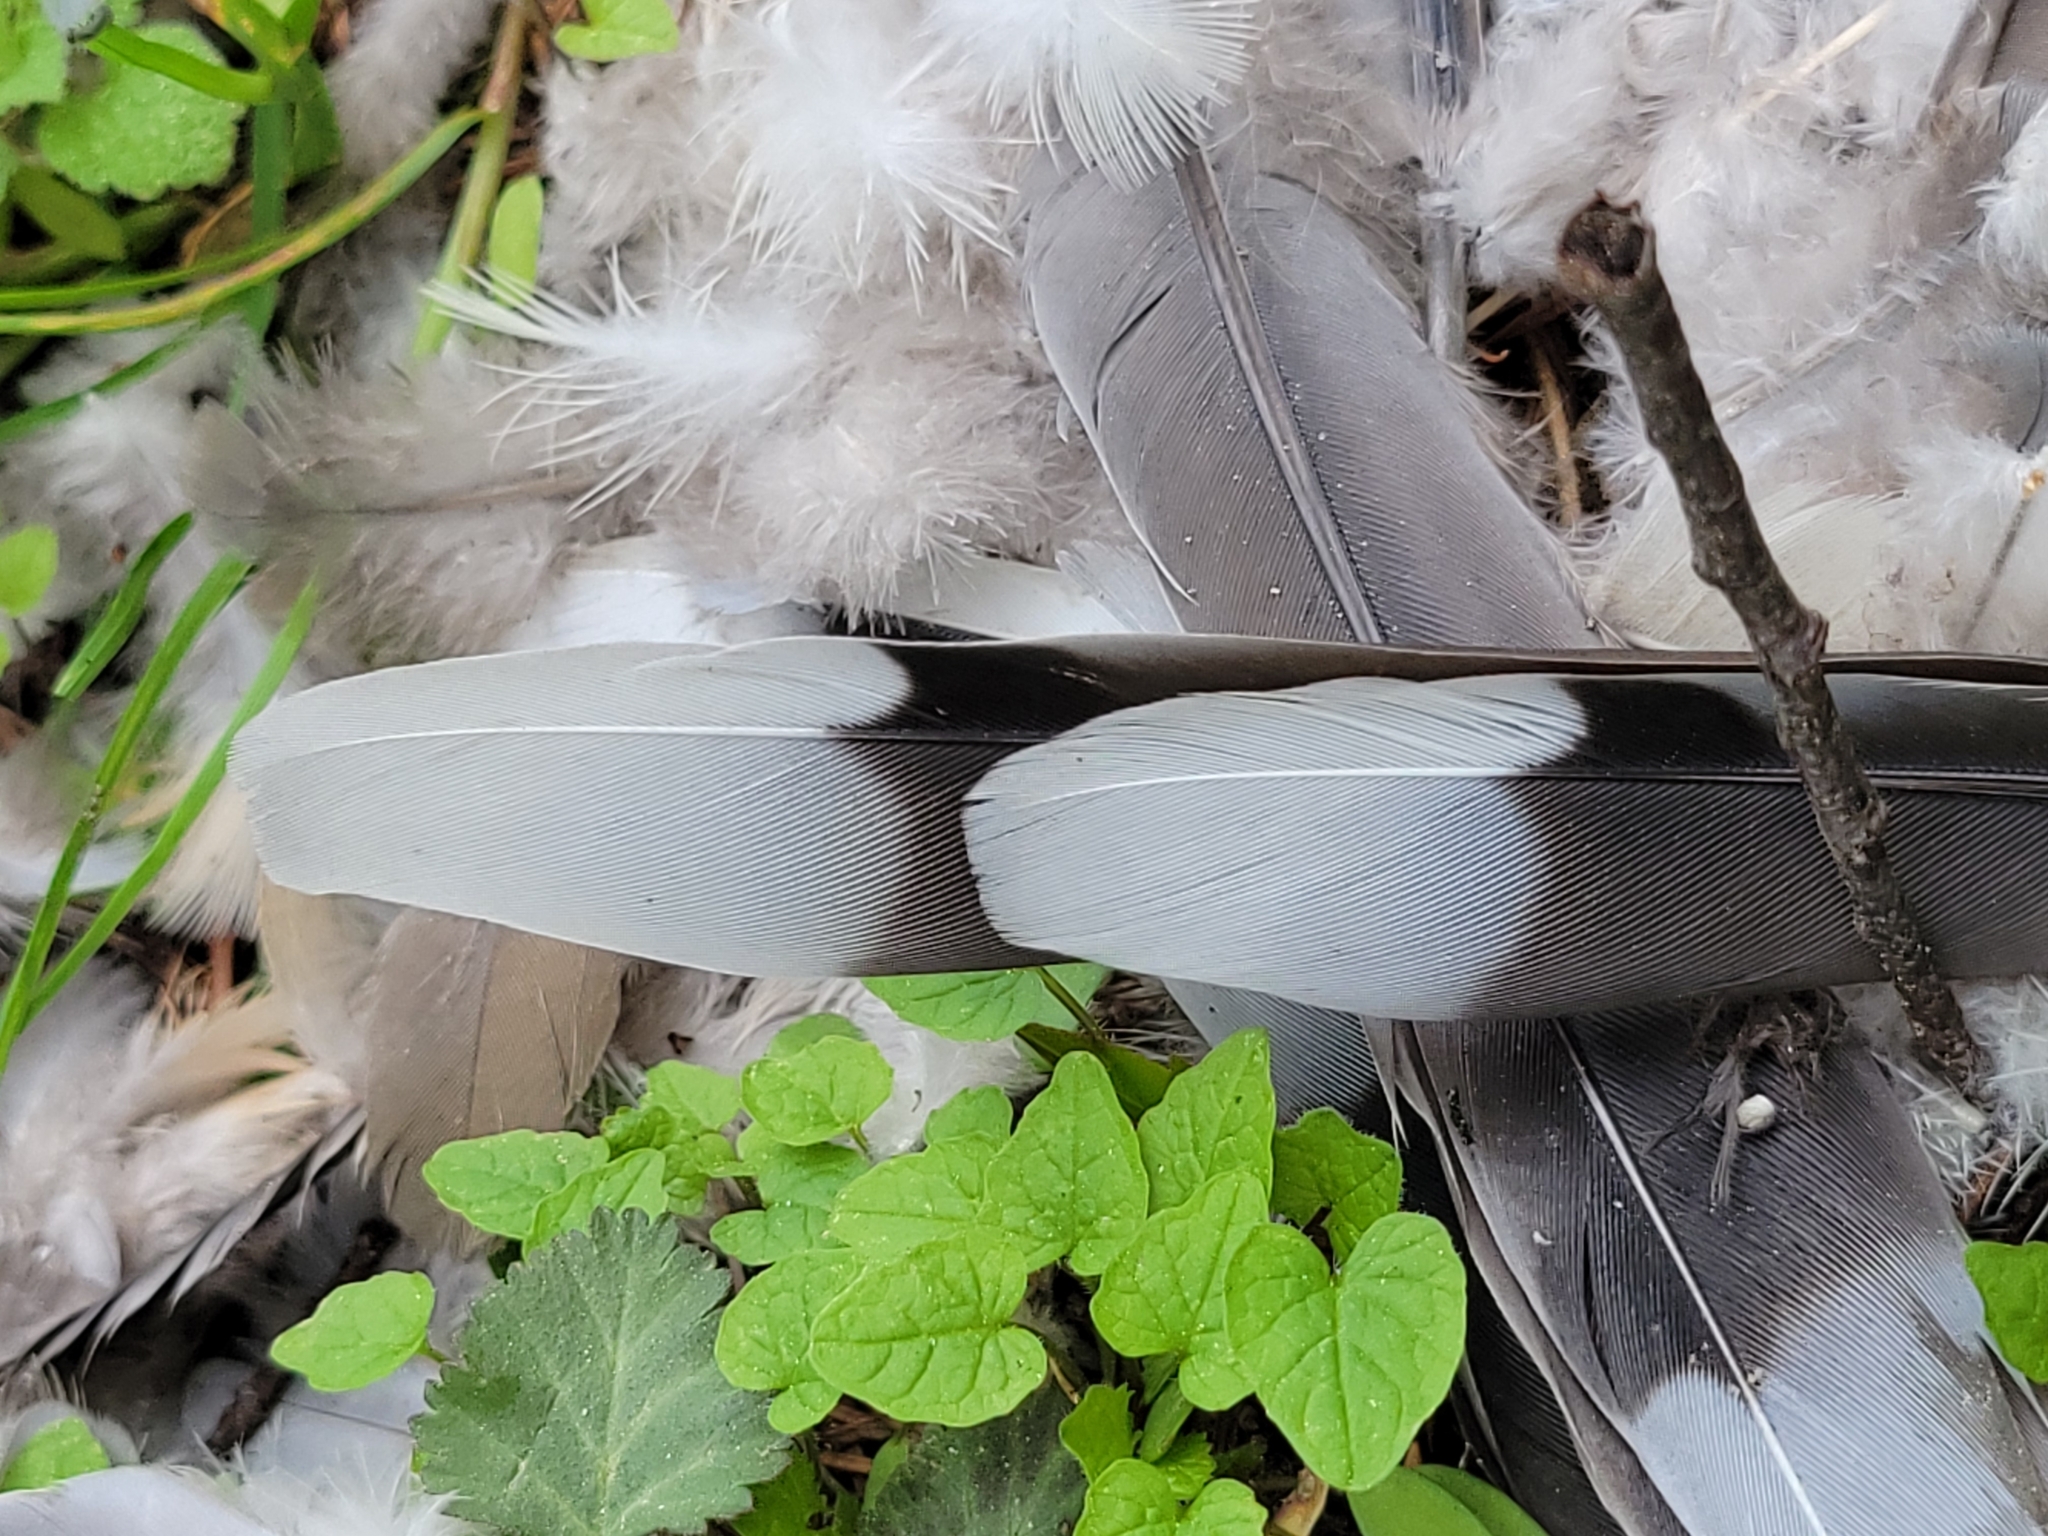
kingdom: Animalia
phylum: Chordata
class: Aves
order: Columbiformes
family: Columbidae
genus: Zenaida
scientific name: Zenaida macroura
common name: Mourning dove
